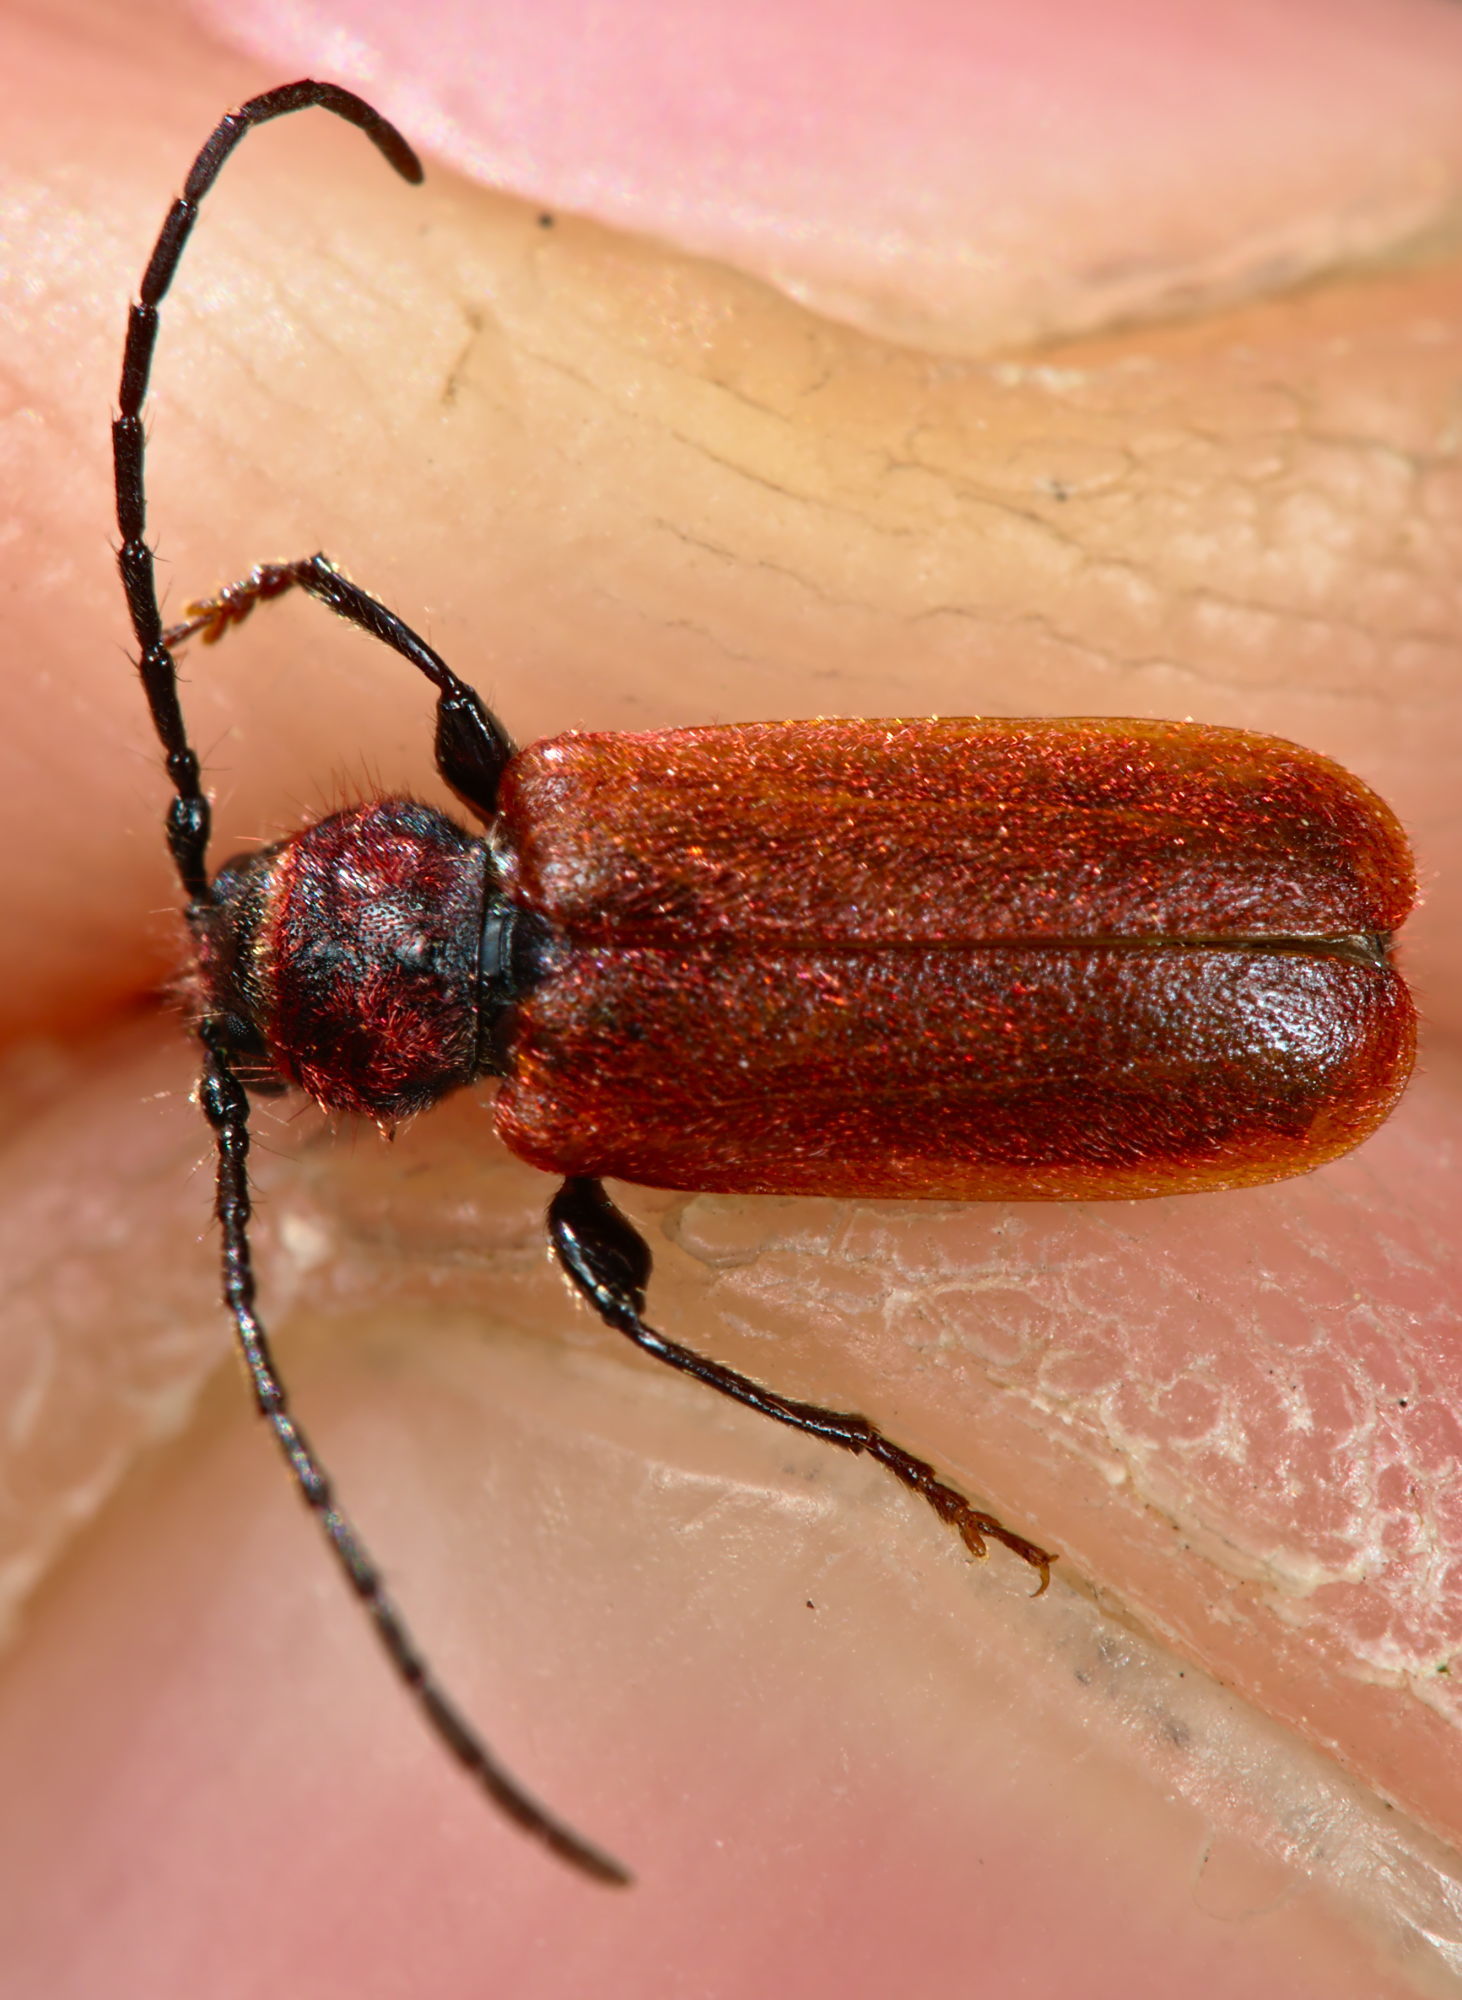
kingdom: Animalia
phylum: Arthropoda
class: Insecta
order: Coleoptera
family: Cerambycidae
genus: Pyrrhidium
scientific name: Pyrrhidium sanguineum
